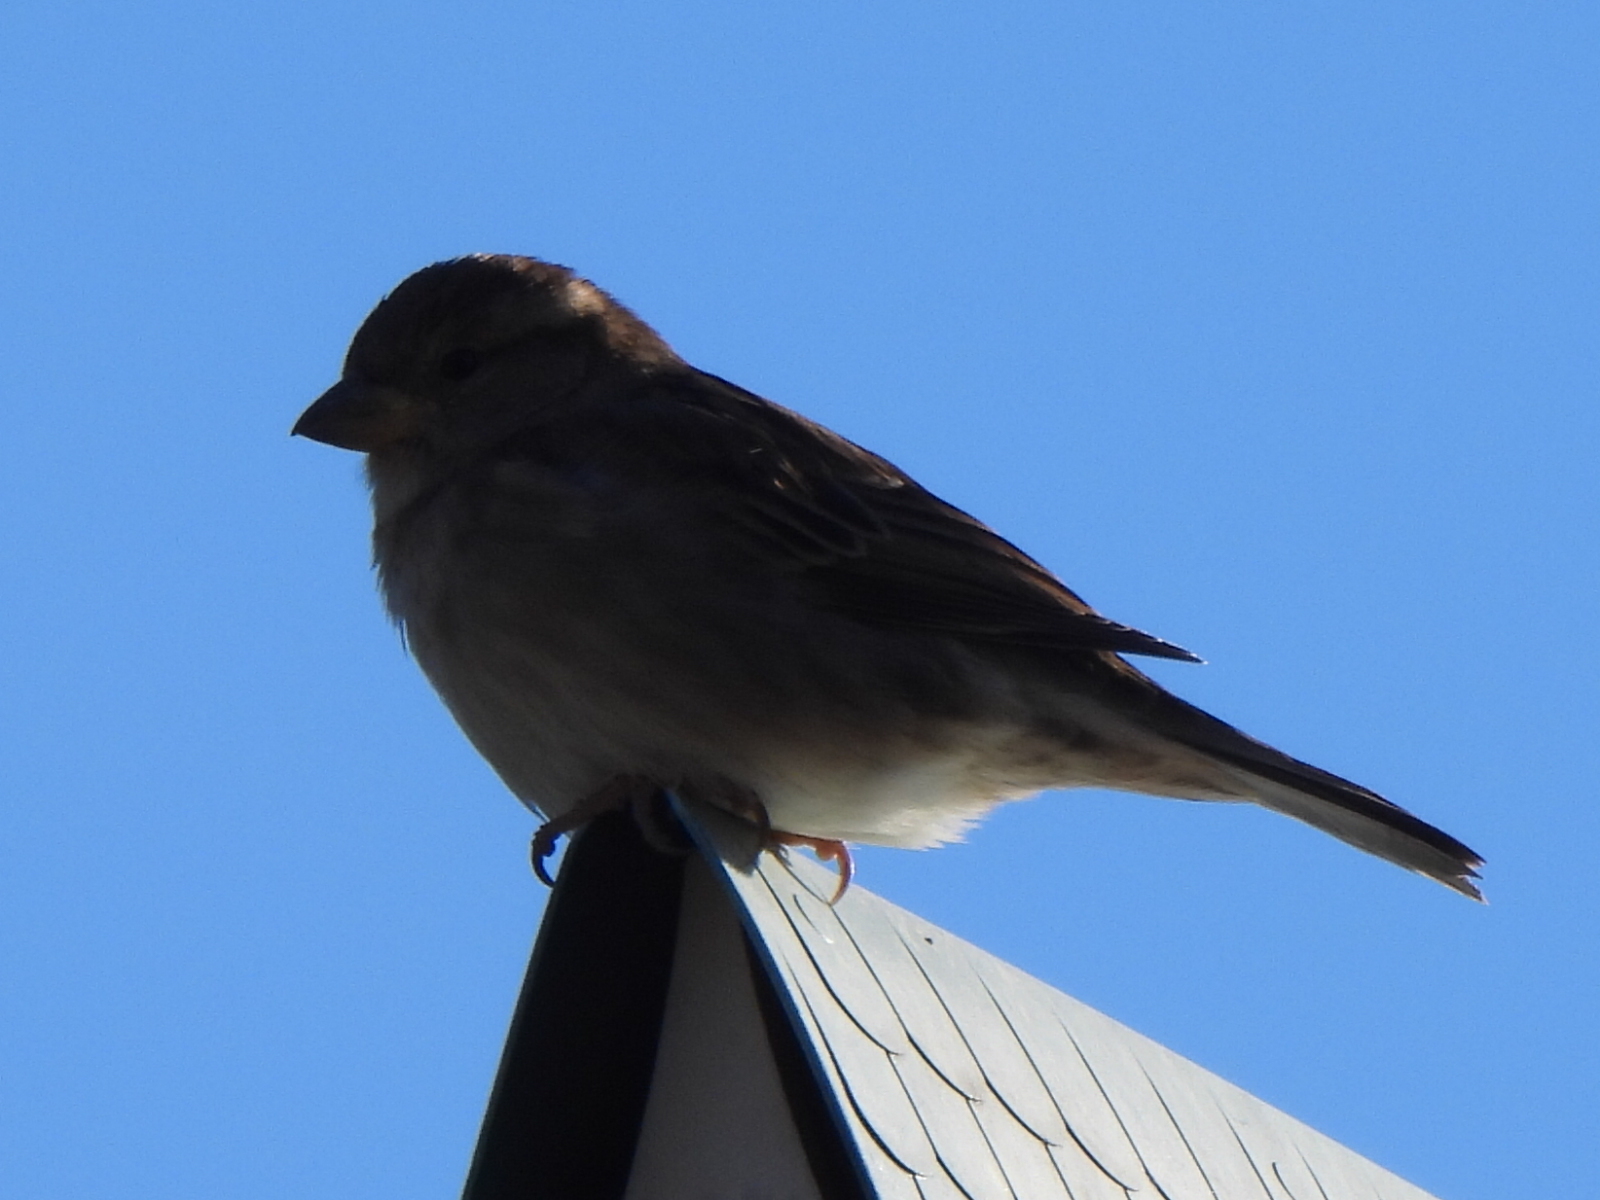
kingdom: Animalia
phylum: Chordata
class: Aves
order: Passeriformes
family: Passeridae
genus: Passer
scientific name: Passer domesticus
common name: House sparrow
